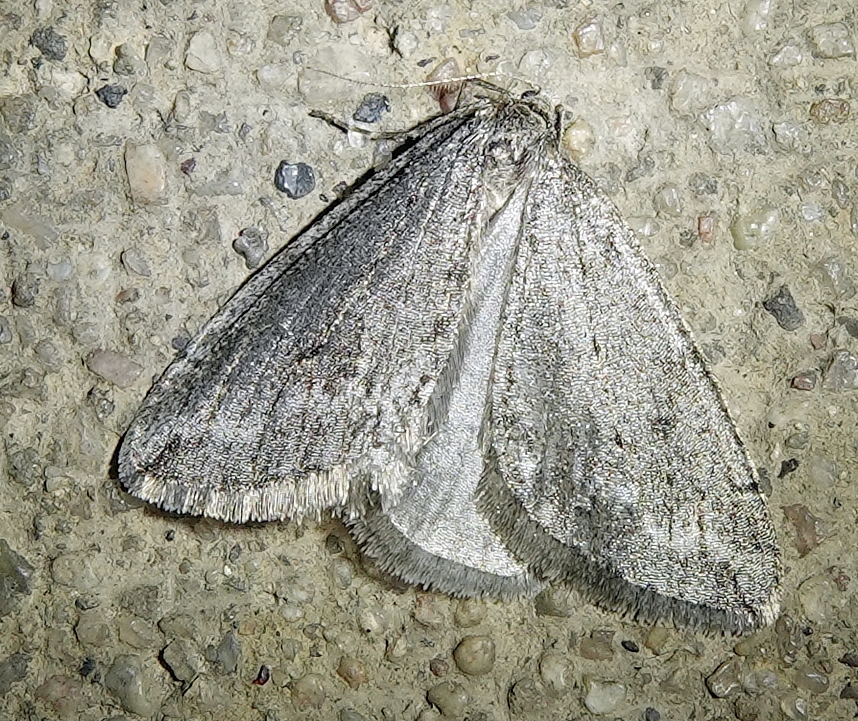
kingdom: Animalia
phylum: Arthropoda
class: Insecta
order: Lepidoptera
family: Geometridae
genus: Paleacrita
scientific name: Paleacrita vernata
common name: Spring cankerworm
